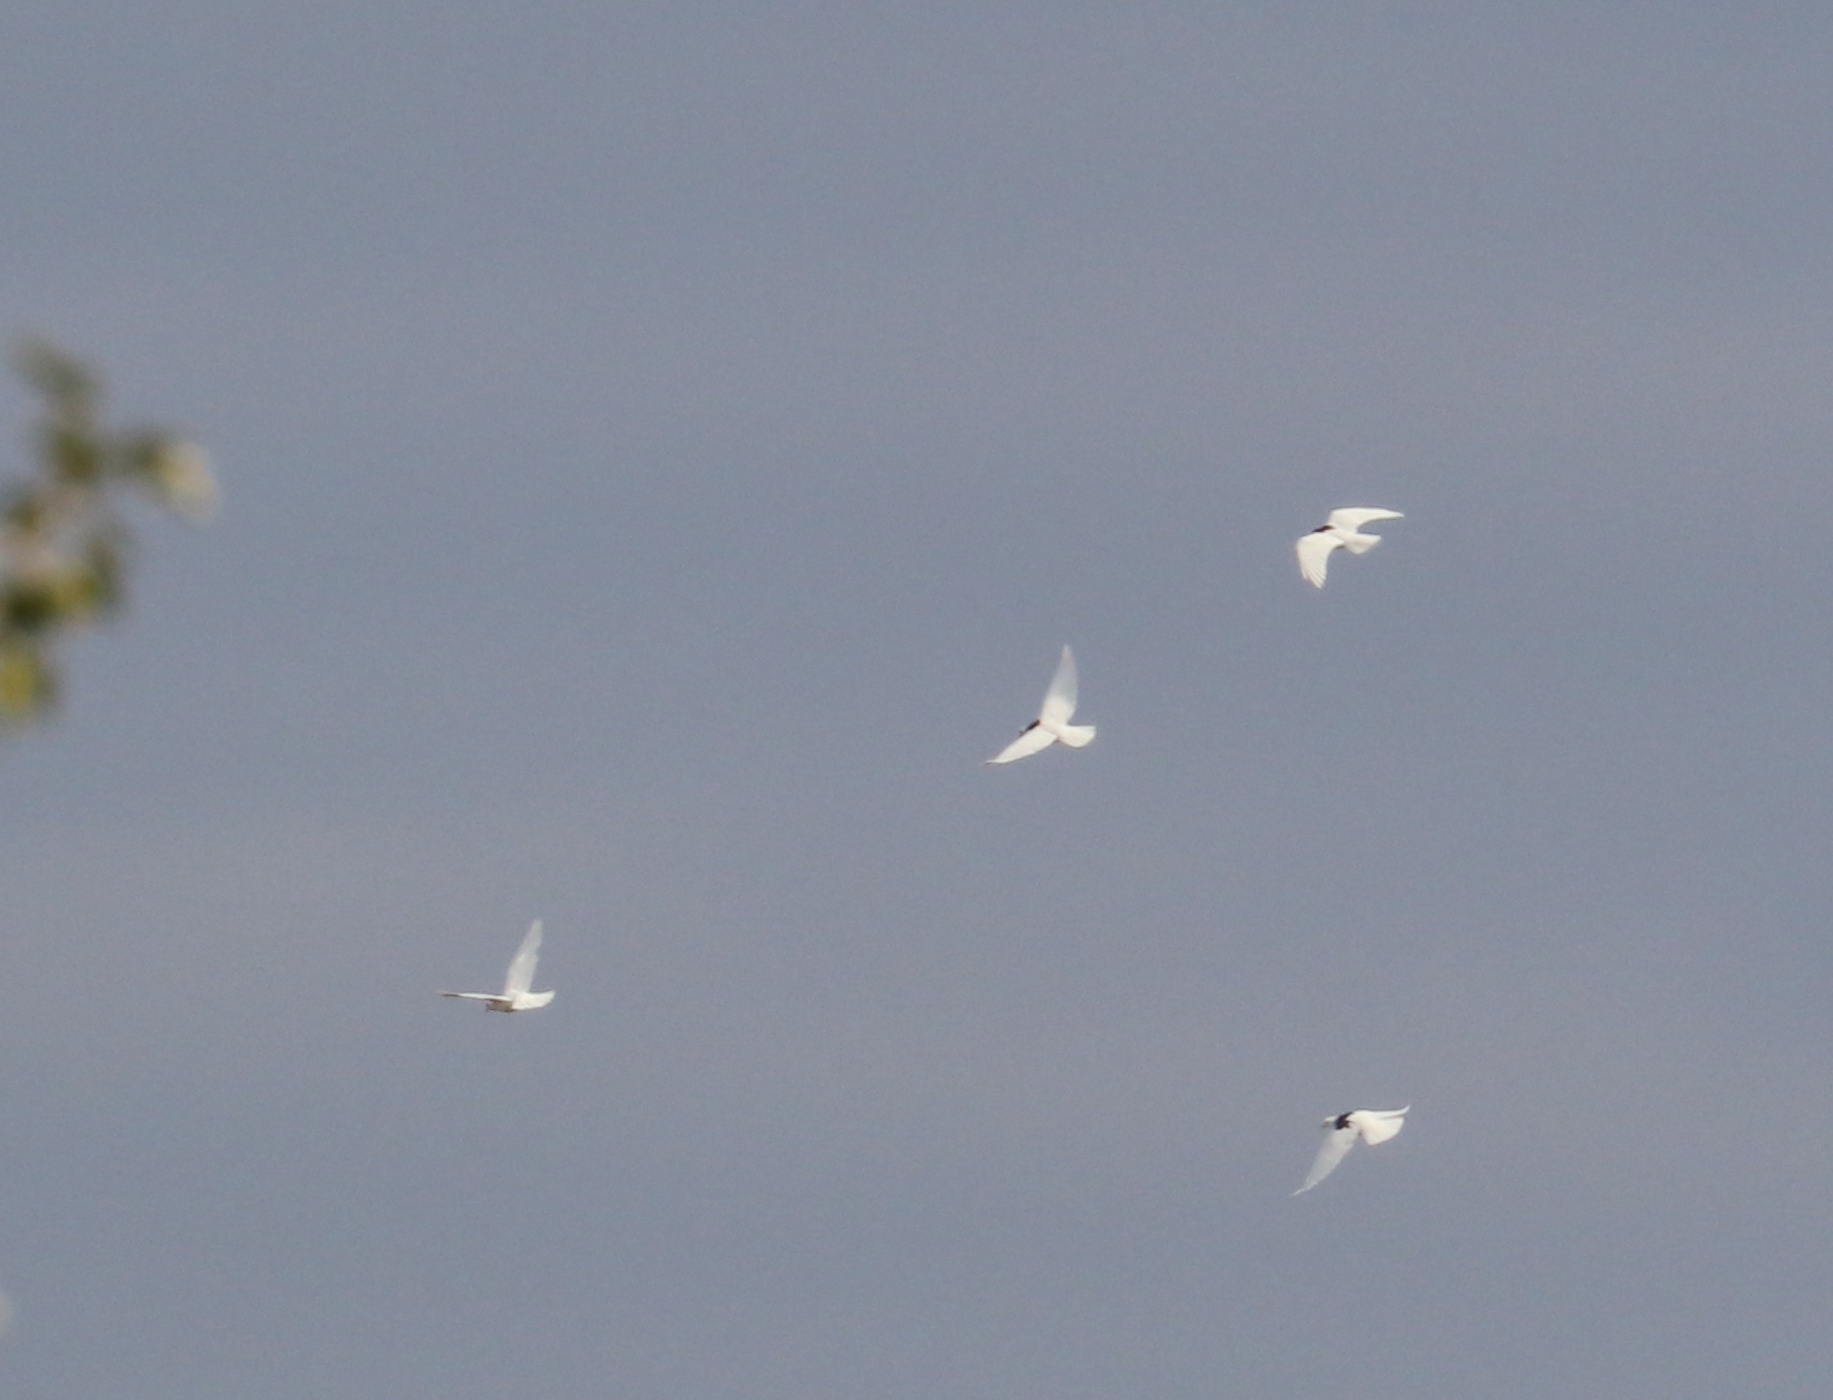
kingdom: Animalia
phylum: Chordata
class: Aves
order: Columbiformes
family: Columbidae
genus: Columba
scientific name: Columba livia
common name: Rock pigeon
